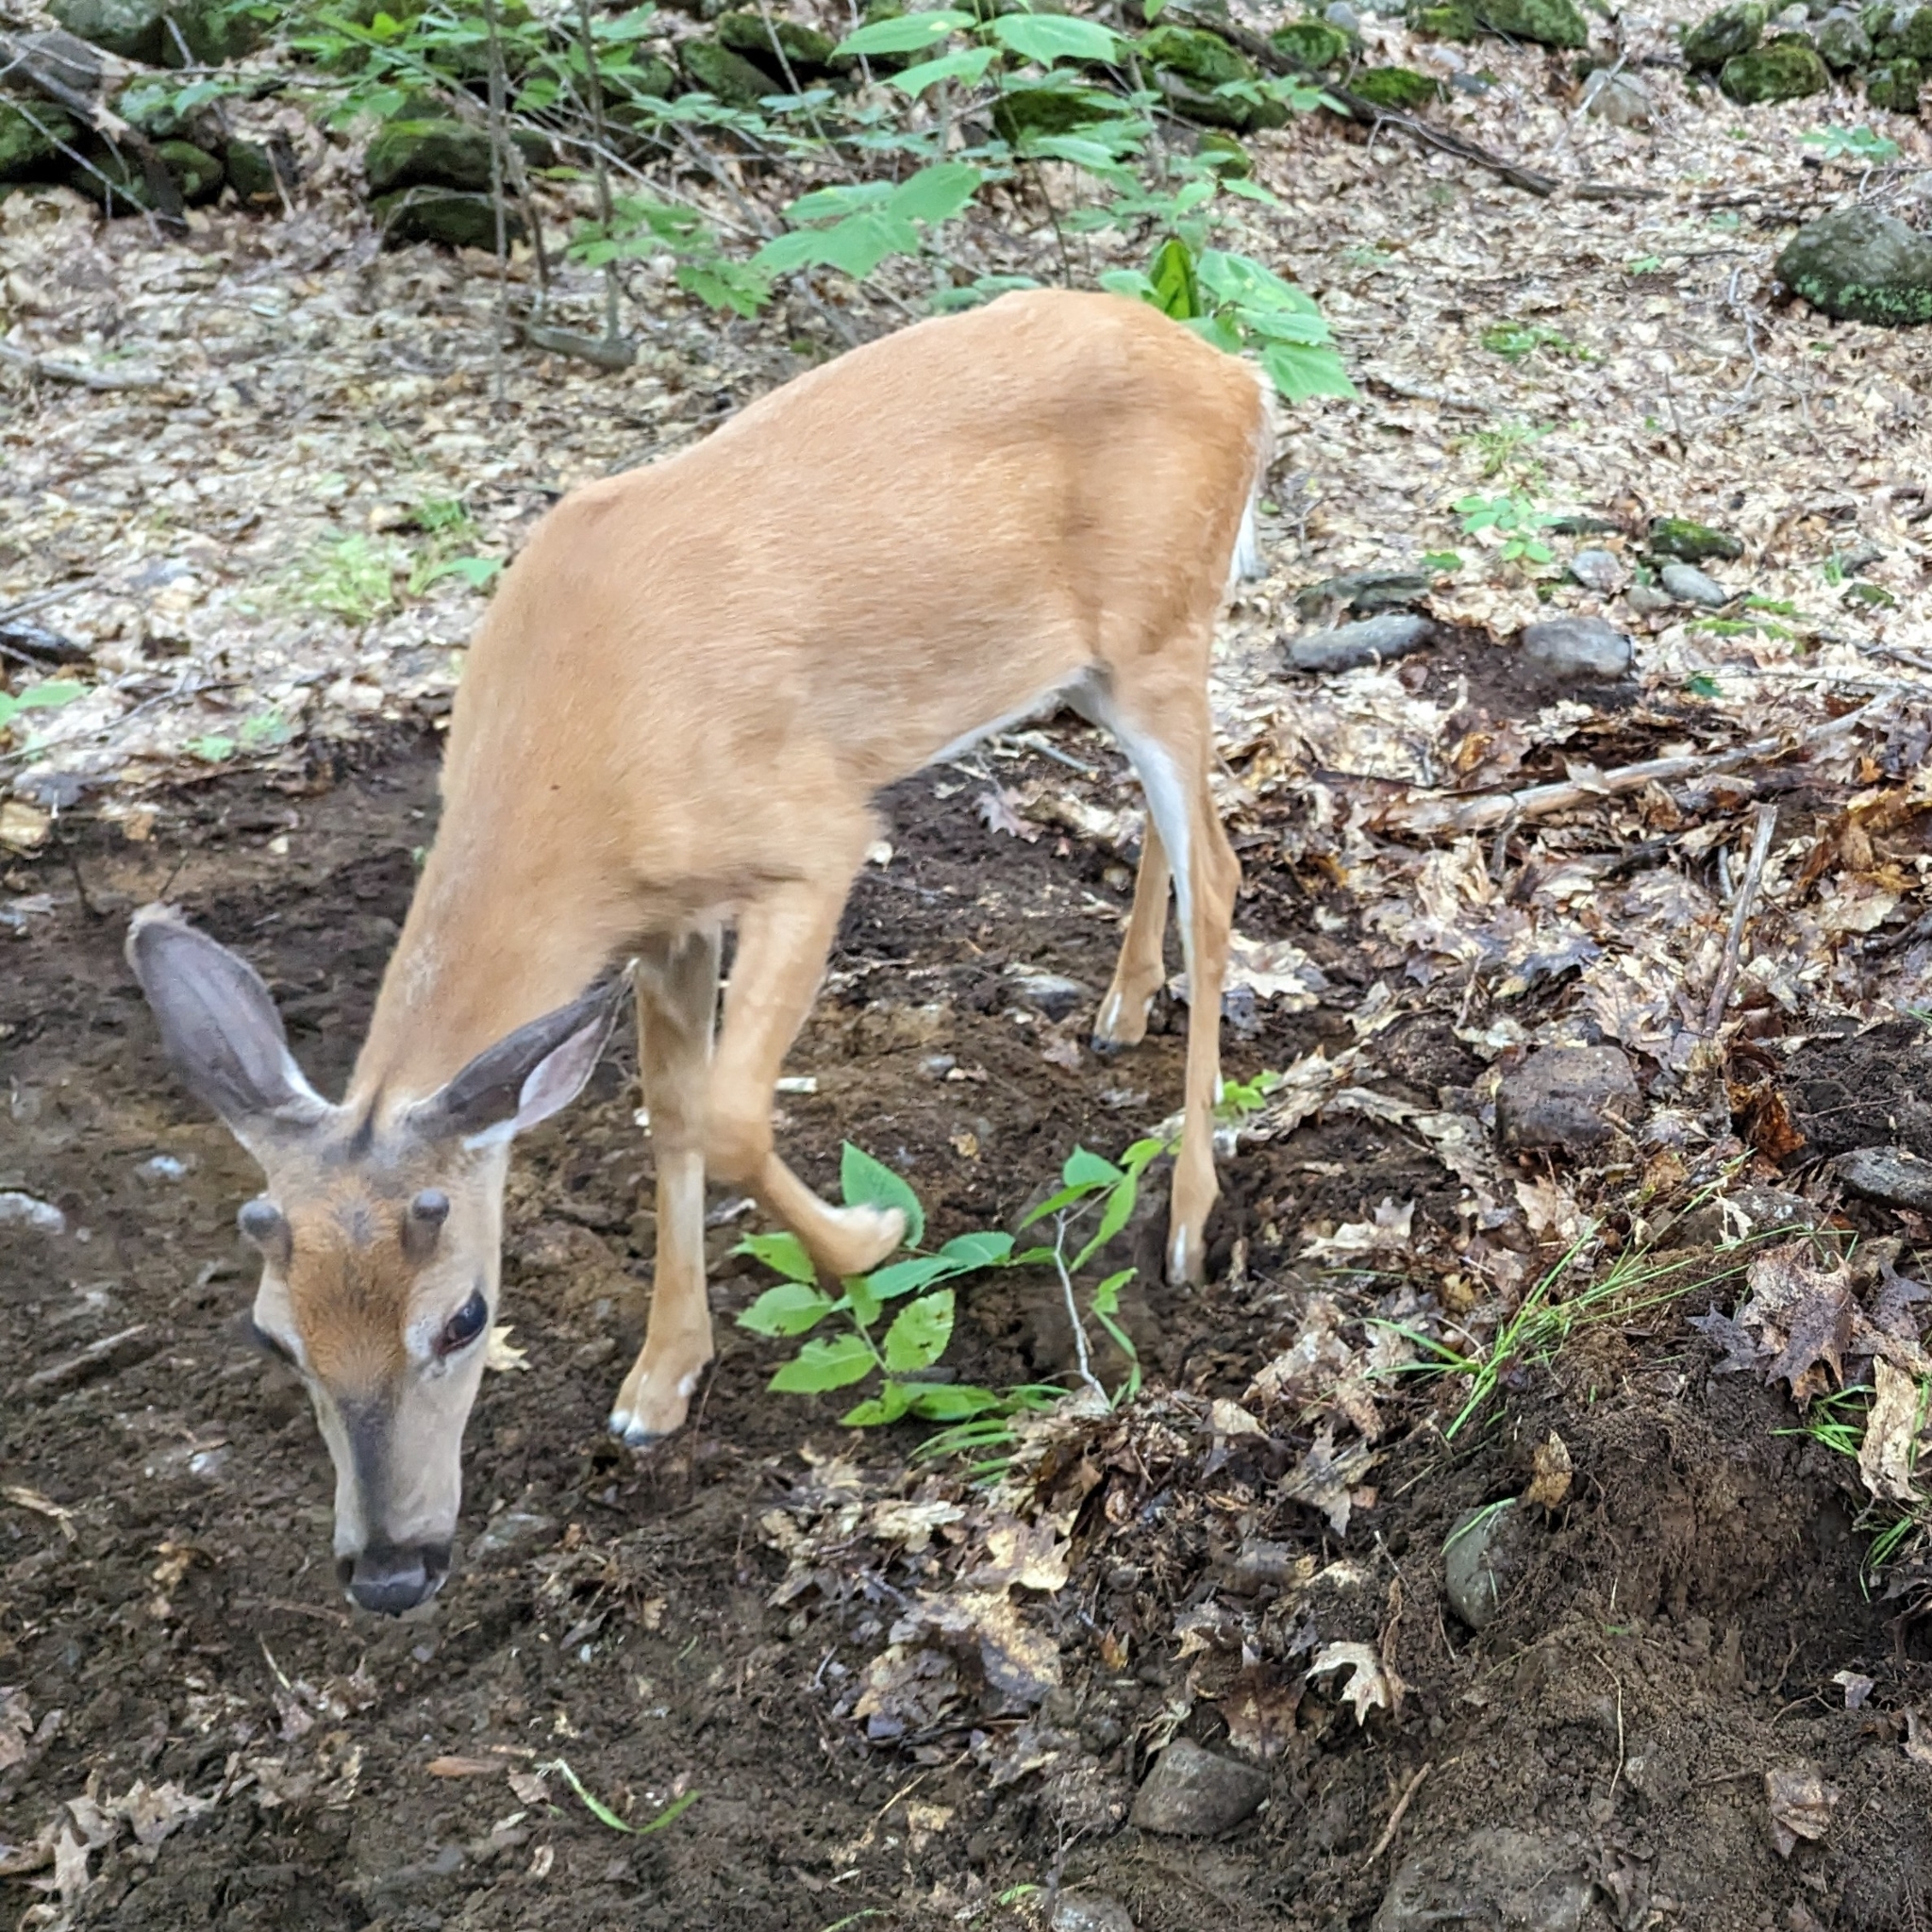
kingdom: Animalia
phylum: Chordata
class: Mammalia
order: Artiodactyla
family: Cervidae
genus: Odocoileus
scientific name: Odocoileus virginianus
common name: White-tailed deer
